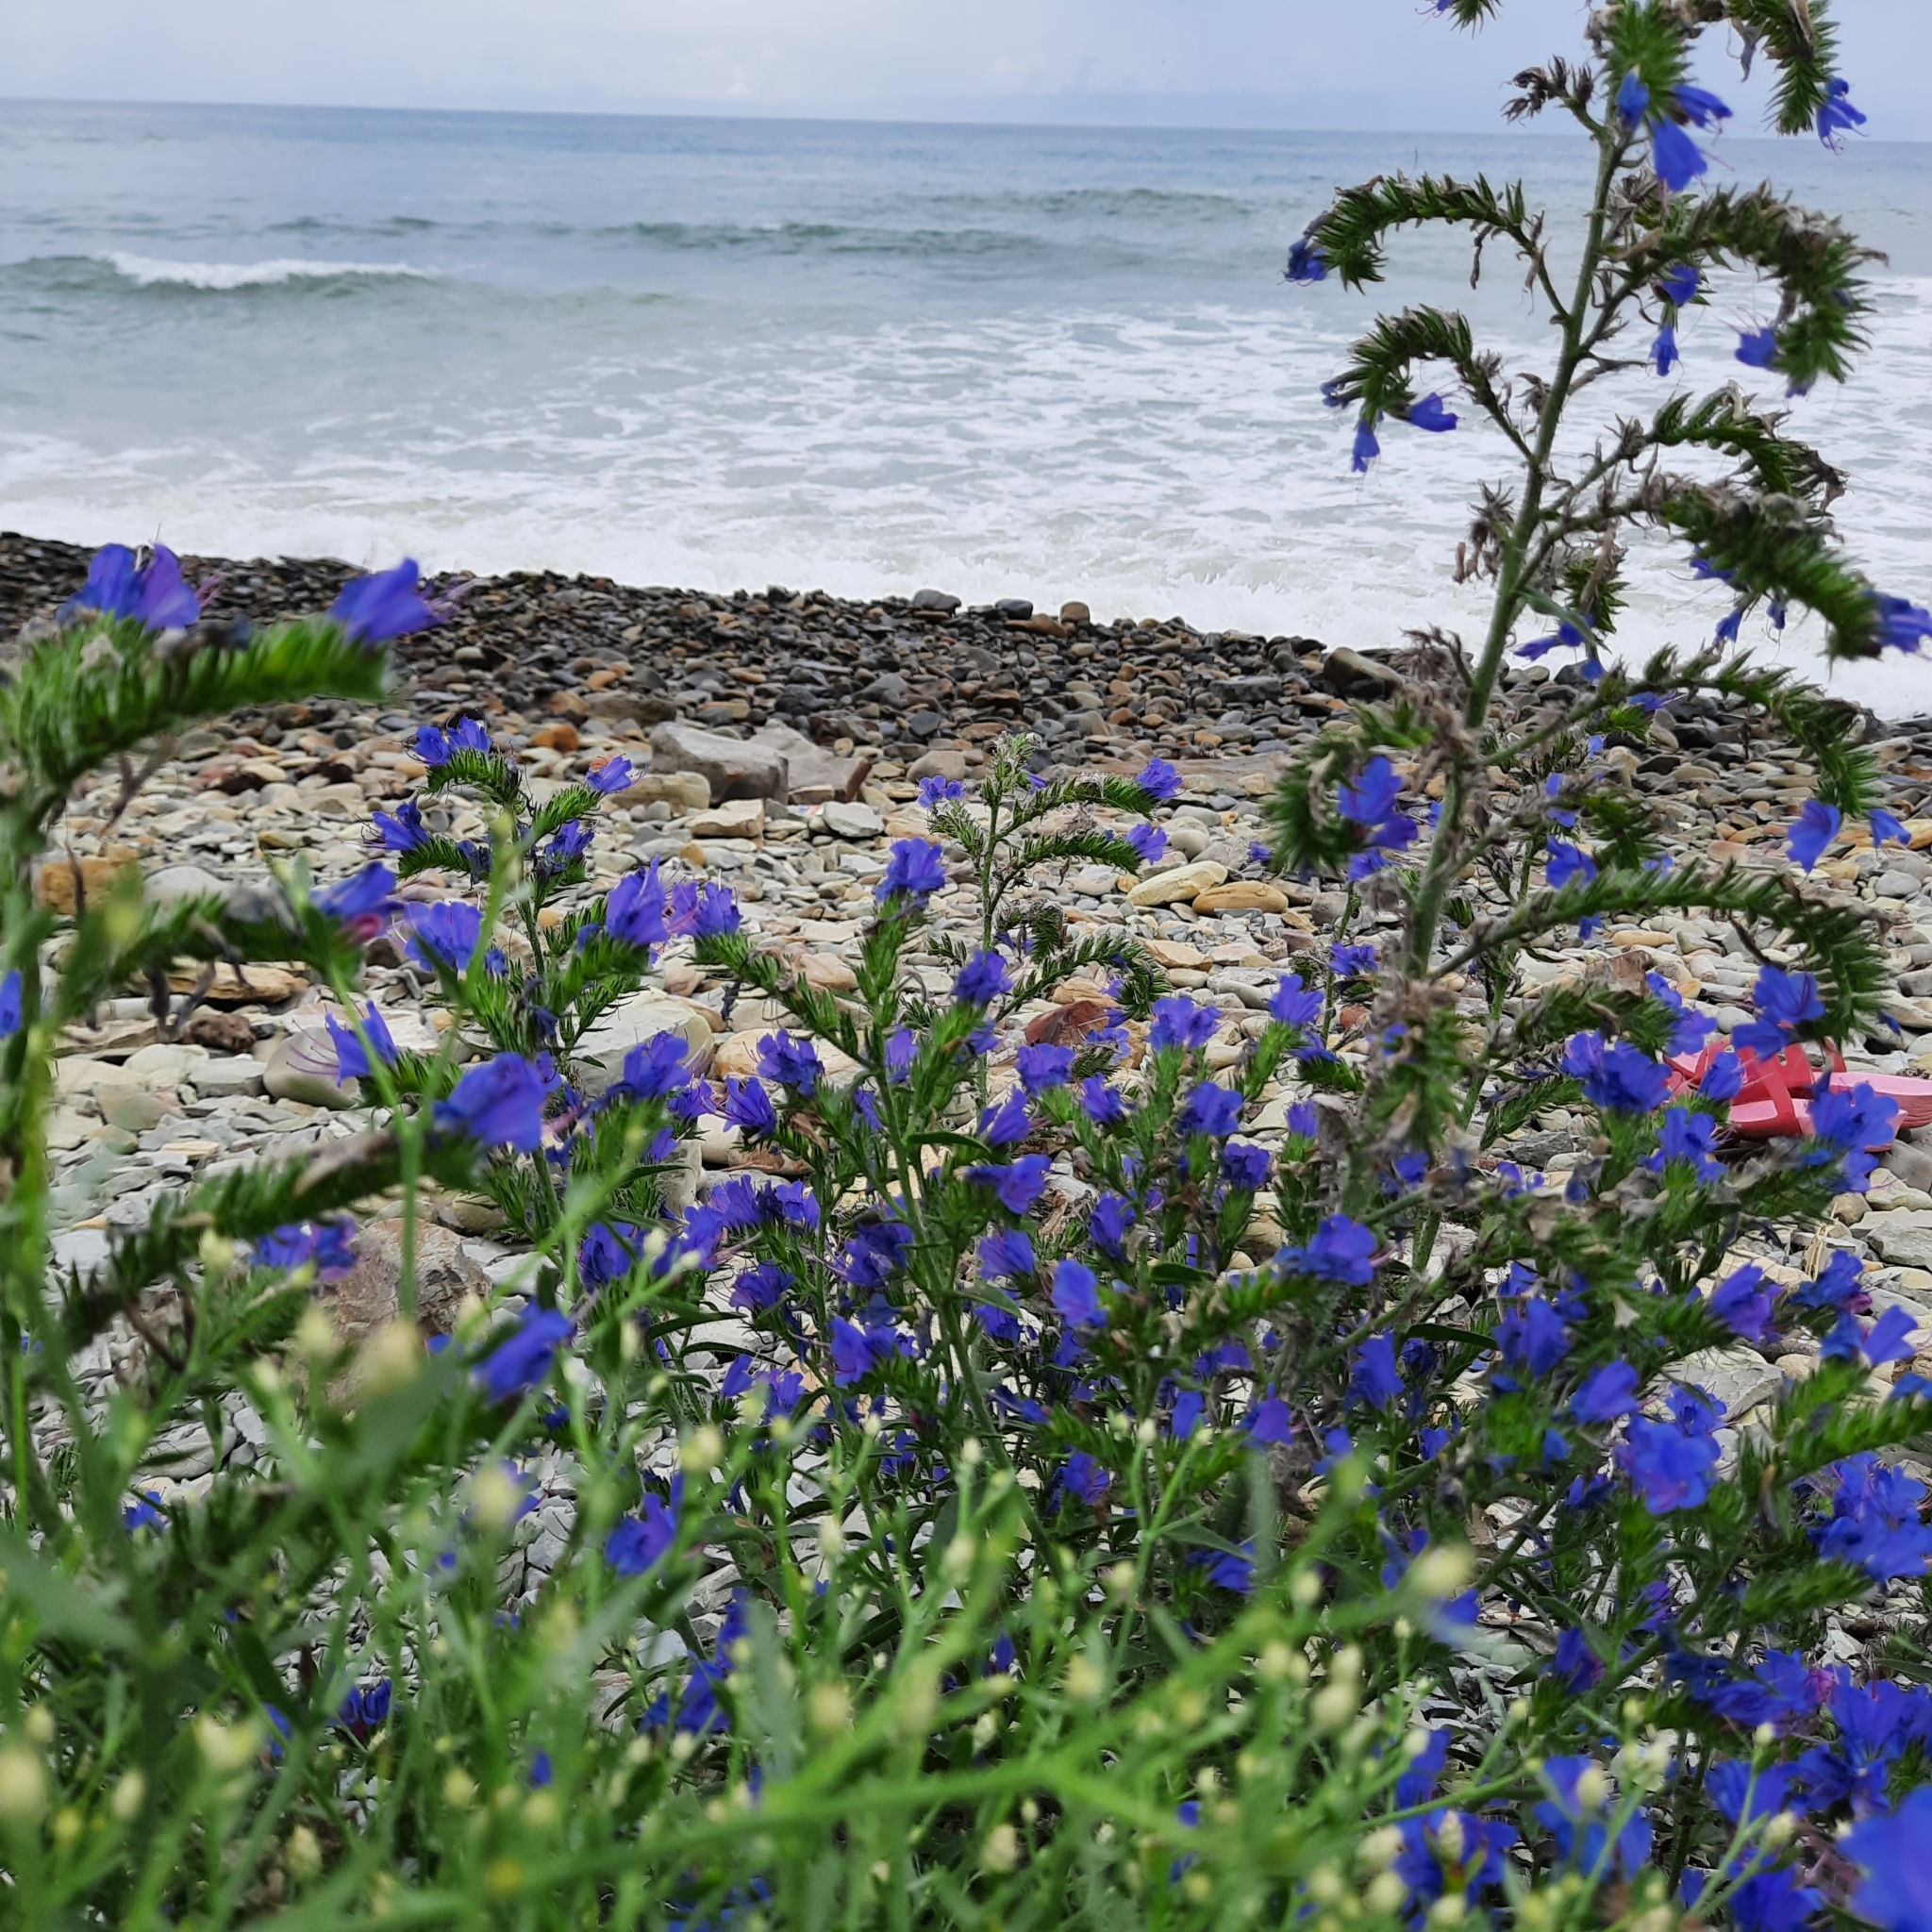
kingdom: Plantae
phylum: Tracheophyta
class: Magnoliopsida
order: Boraginales
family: Boraginaceae
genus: Echium
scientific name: Echium vulgare
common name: Common viper's bugloss
